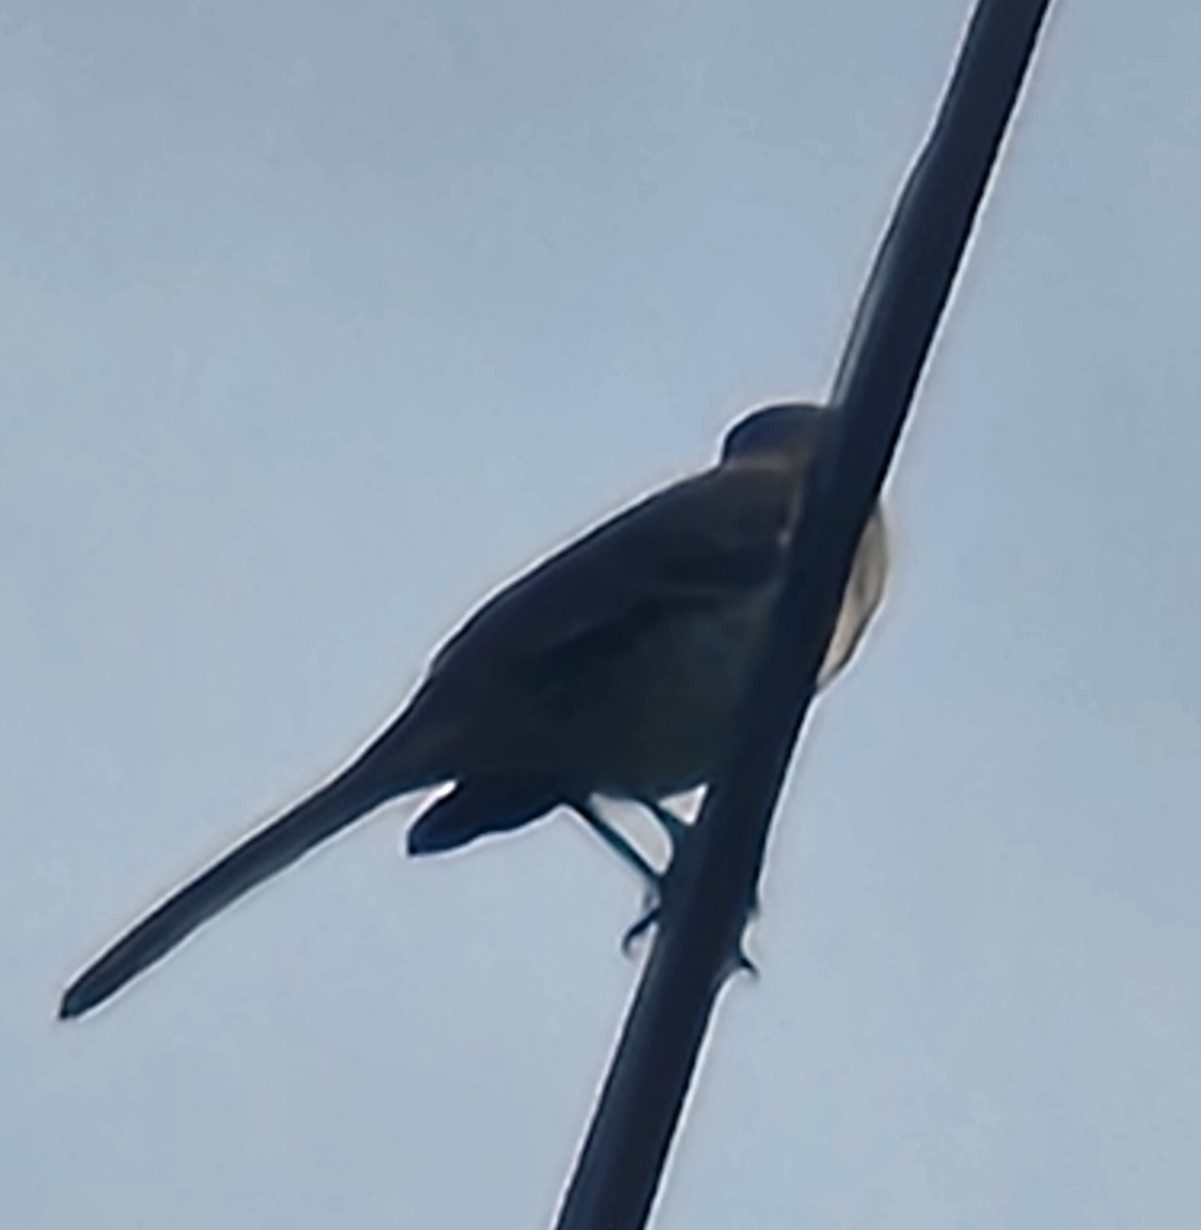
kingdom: Animalia
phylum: Chordata
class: Aves
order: Passeriformes
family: Mimidae
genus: Mimus
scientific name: Mimus polyglottos
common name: Northern mockingbird
